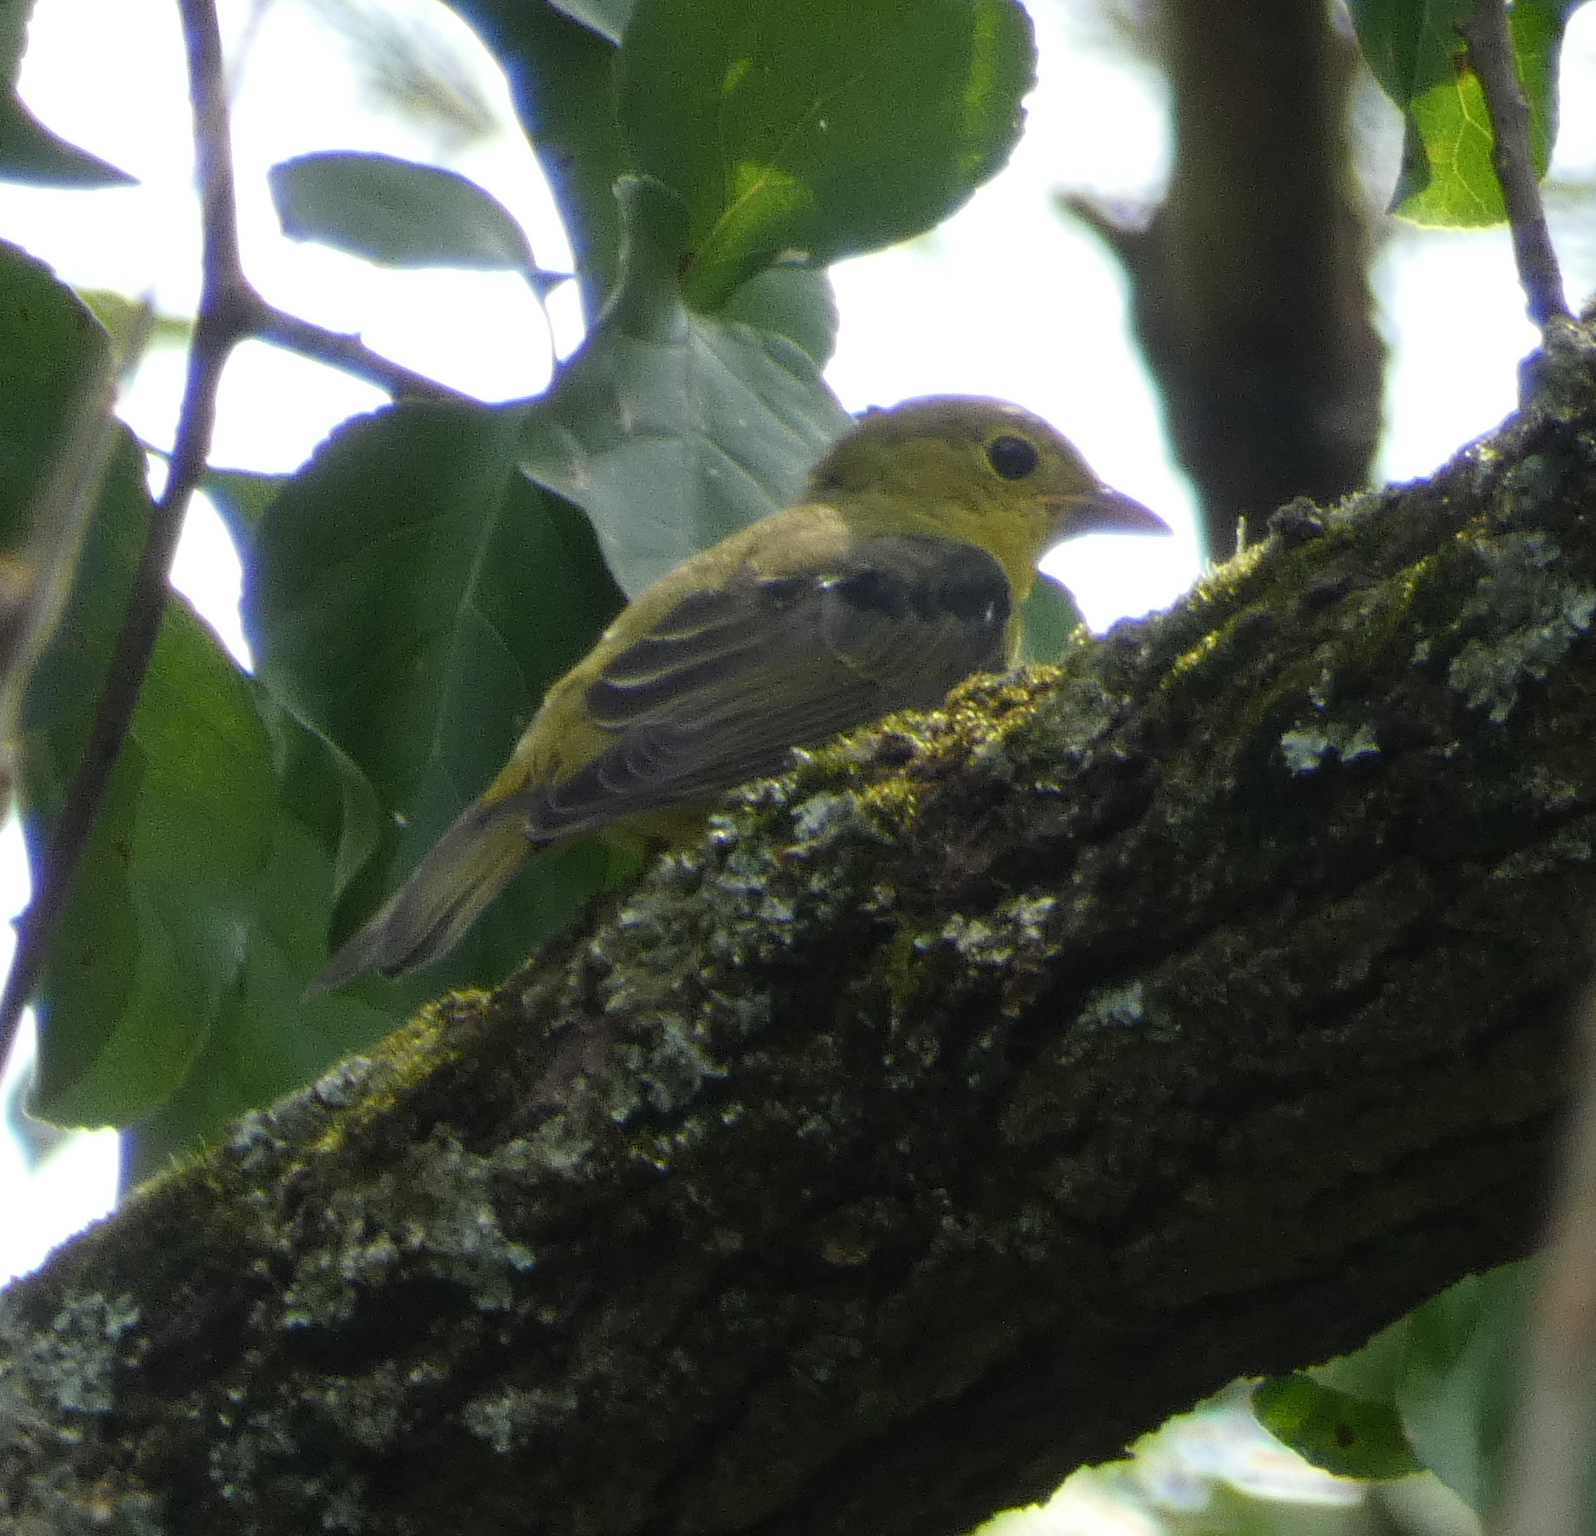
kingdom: Animalia
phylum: Chordata
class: Aves
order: Passeriformes
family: Cardinalidae
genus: Piranga
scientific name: Piranga olivacea
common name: Scarlet tanager
